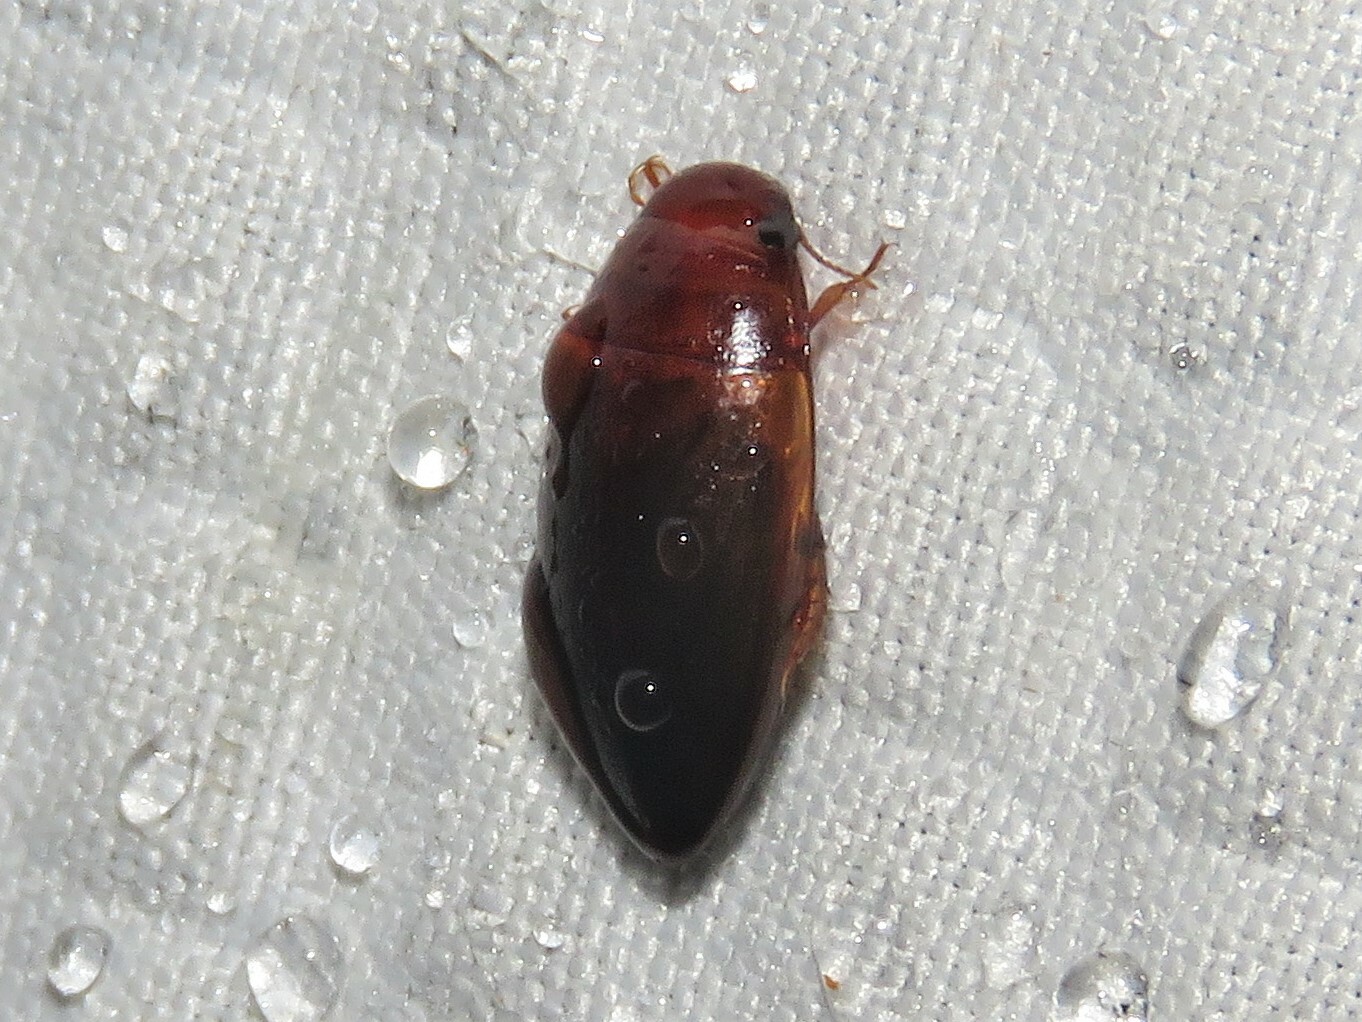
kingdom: Animalia
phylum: Arthropoda
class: Insecta
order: Coleoptera
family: Dytiscidae
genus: Copelatus
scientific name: Copelatus
